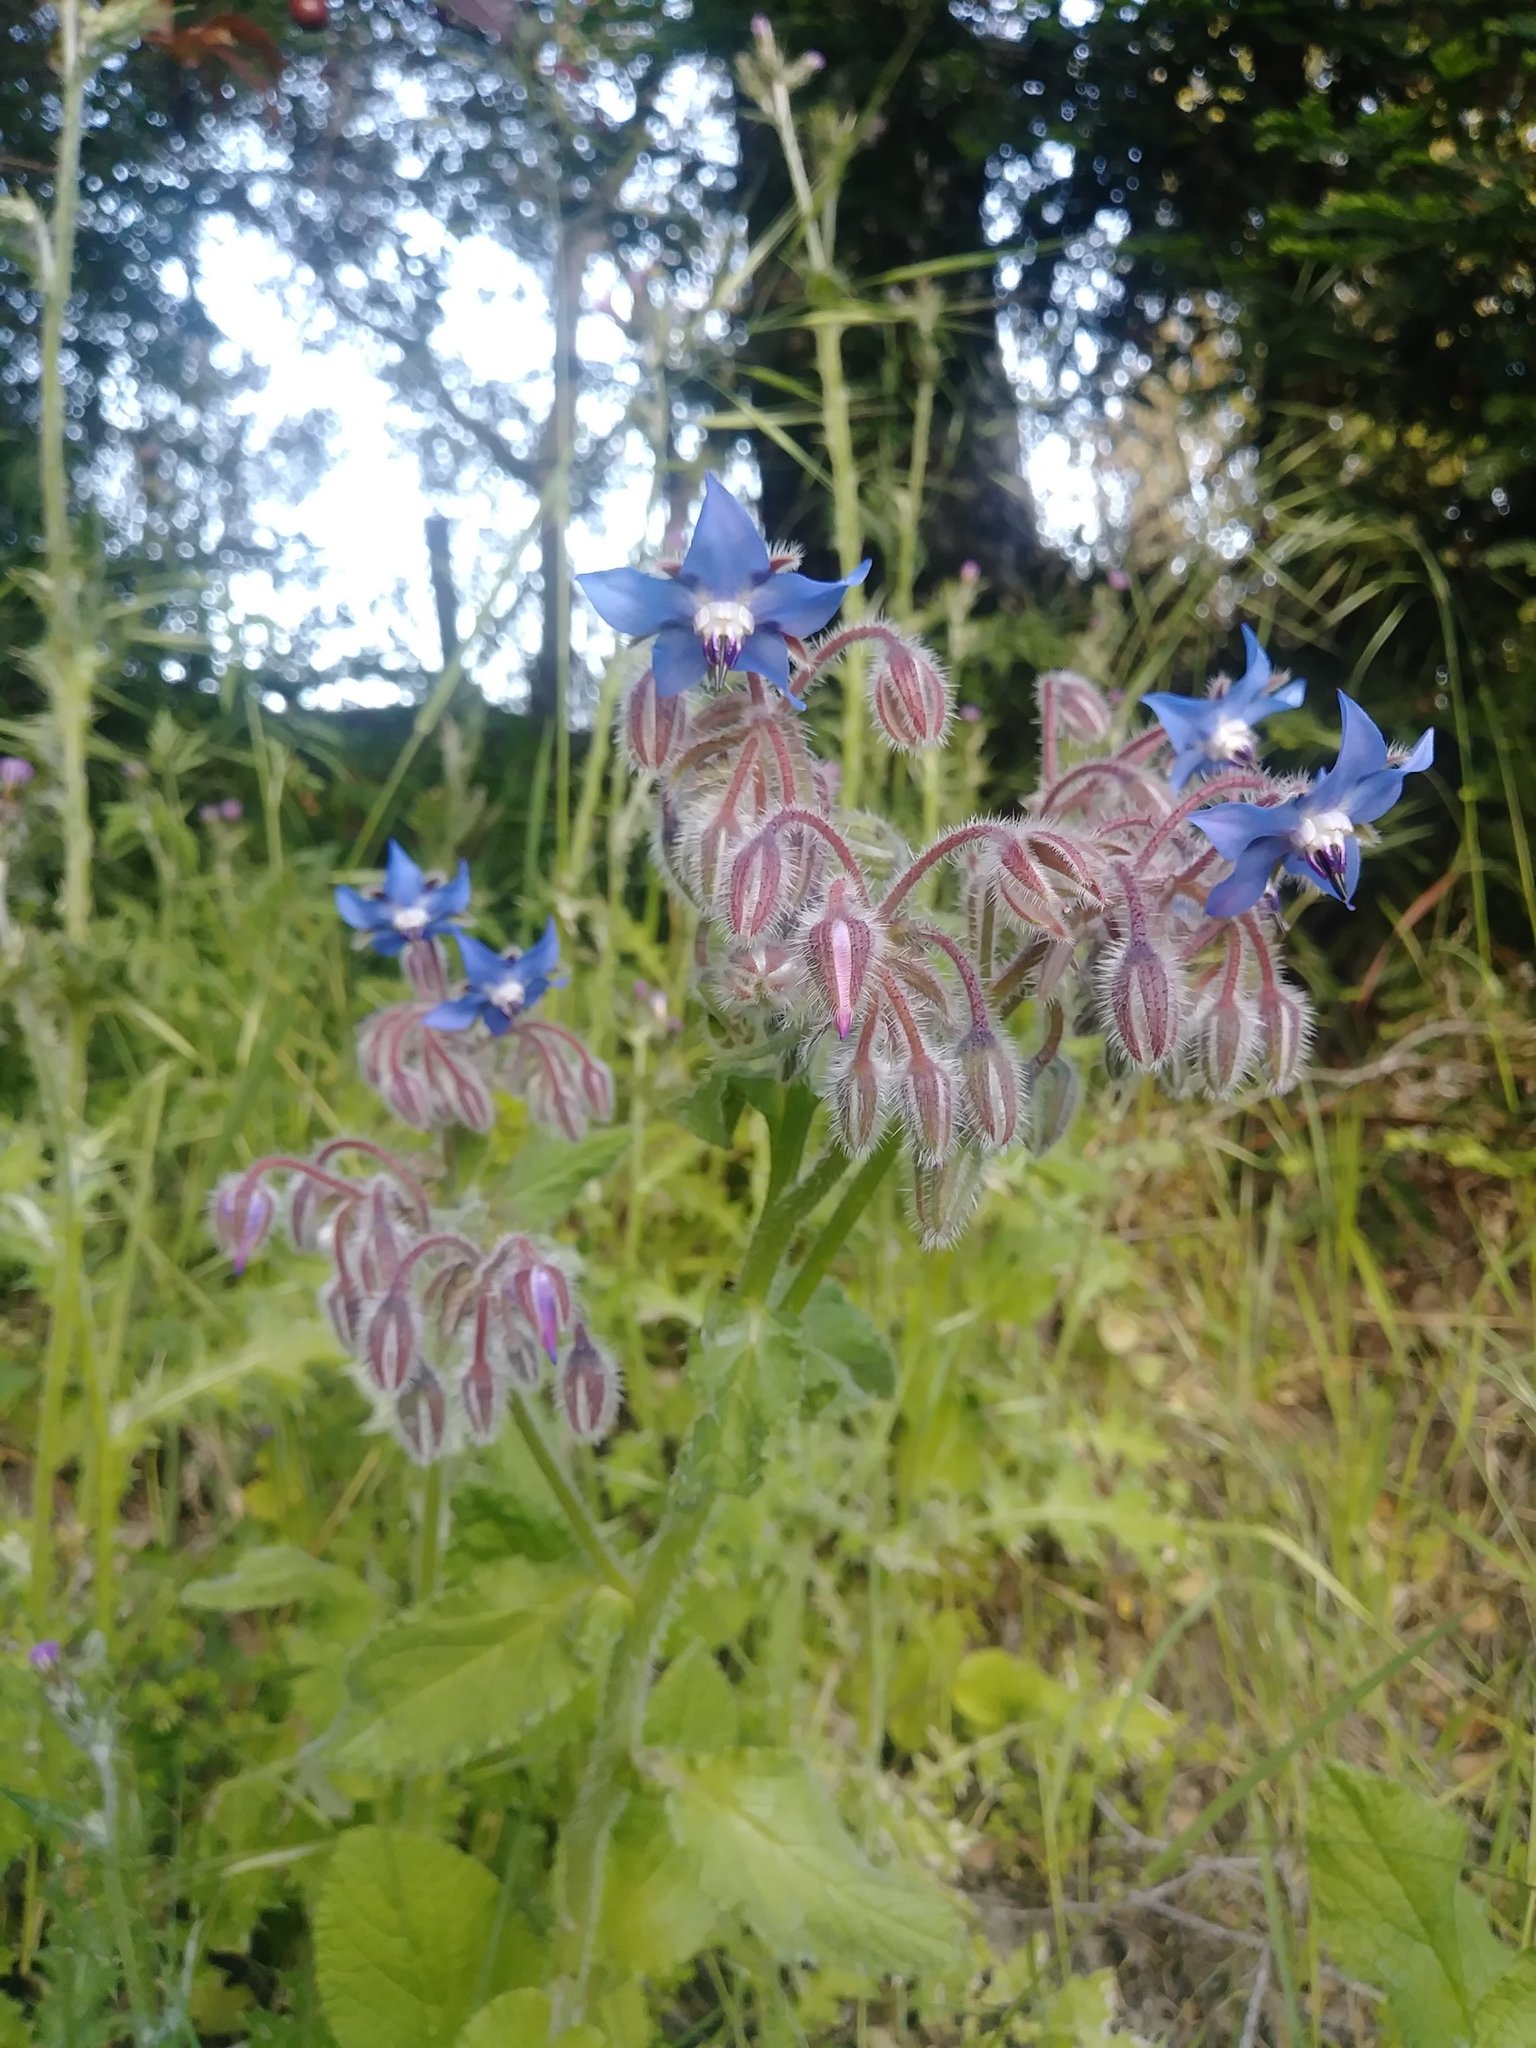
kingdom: Plantae
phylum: Tracheophyta
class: Magnoliopsida
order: Boraginales
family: Boraginaceae
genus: Borago
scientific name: Borago officinalis
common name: Borage
